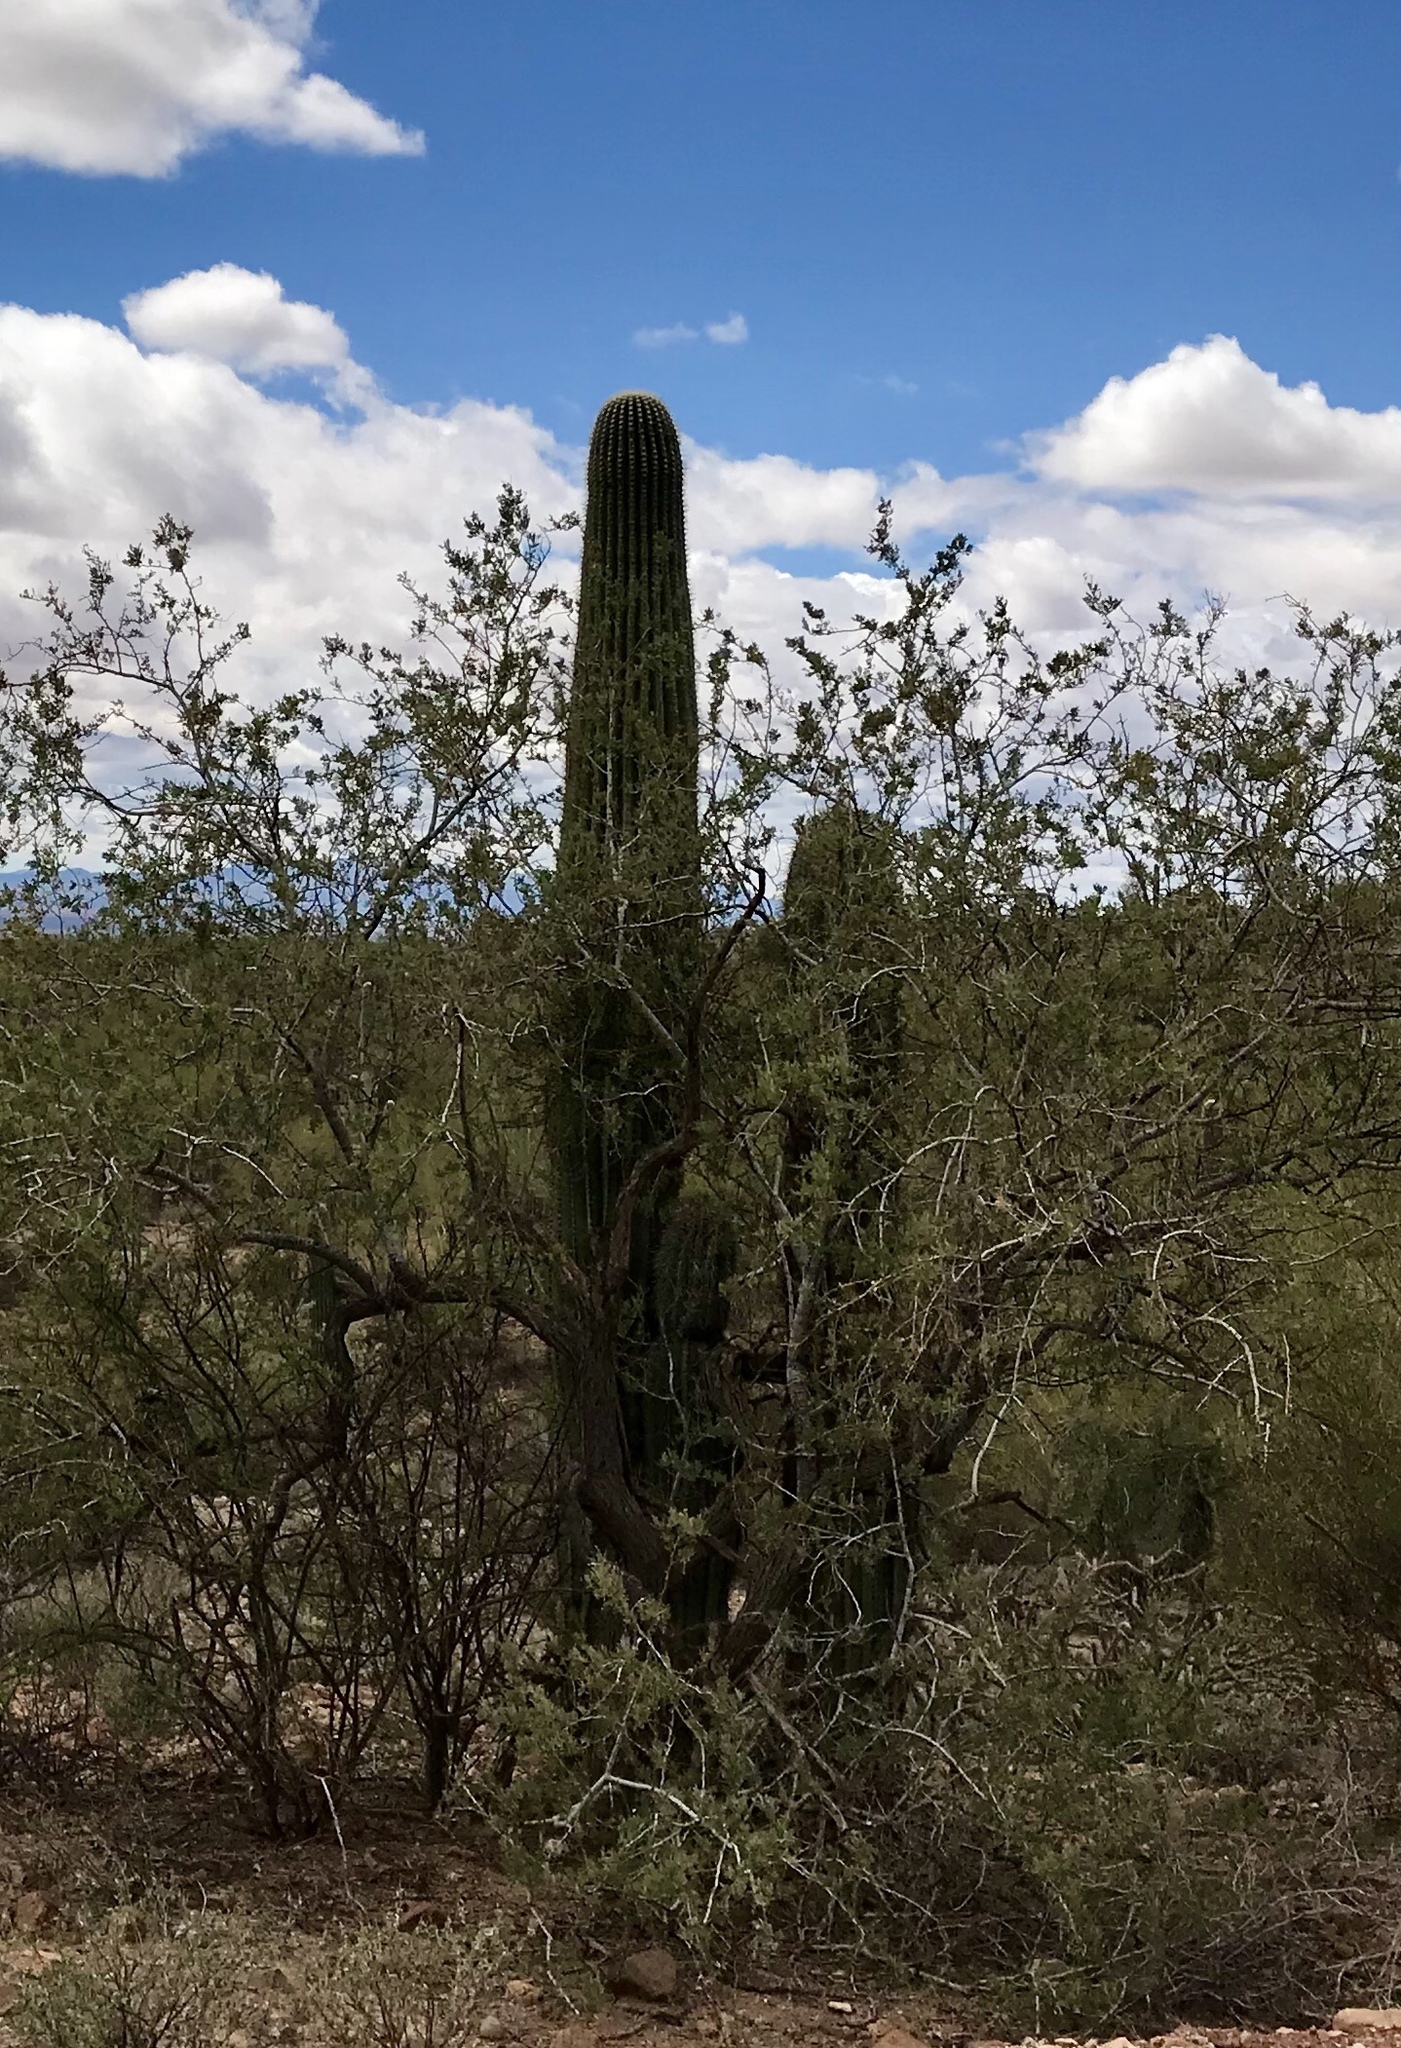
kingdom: Plantae
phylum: Tracheophyta
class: Magnoliopsida
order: Caryophyllales
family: Cactaceae
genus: Carnegiea
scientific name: Carnegiea gigantea
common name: Saguaro
